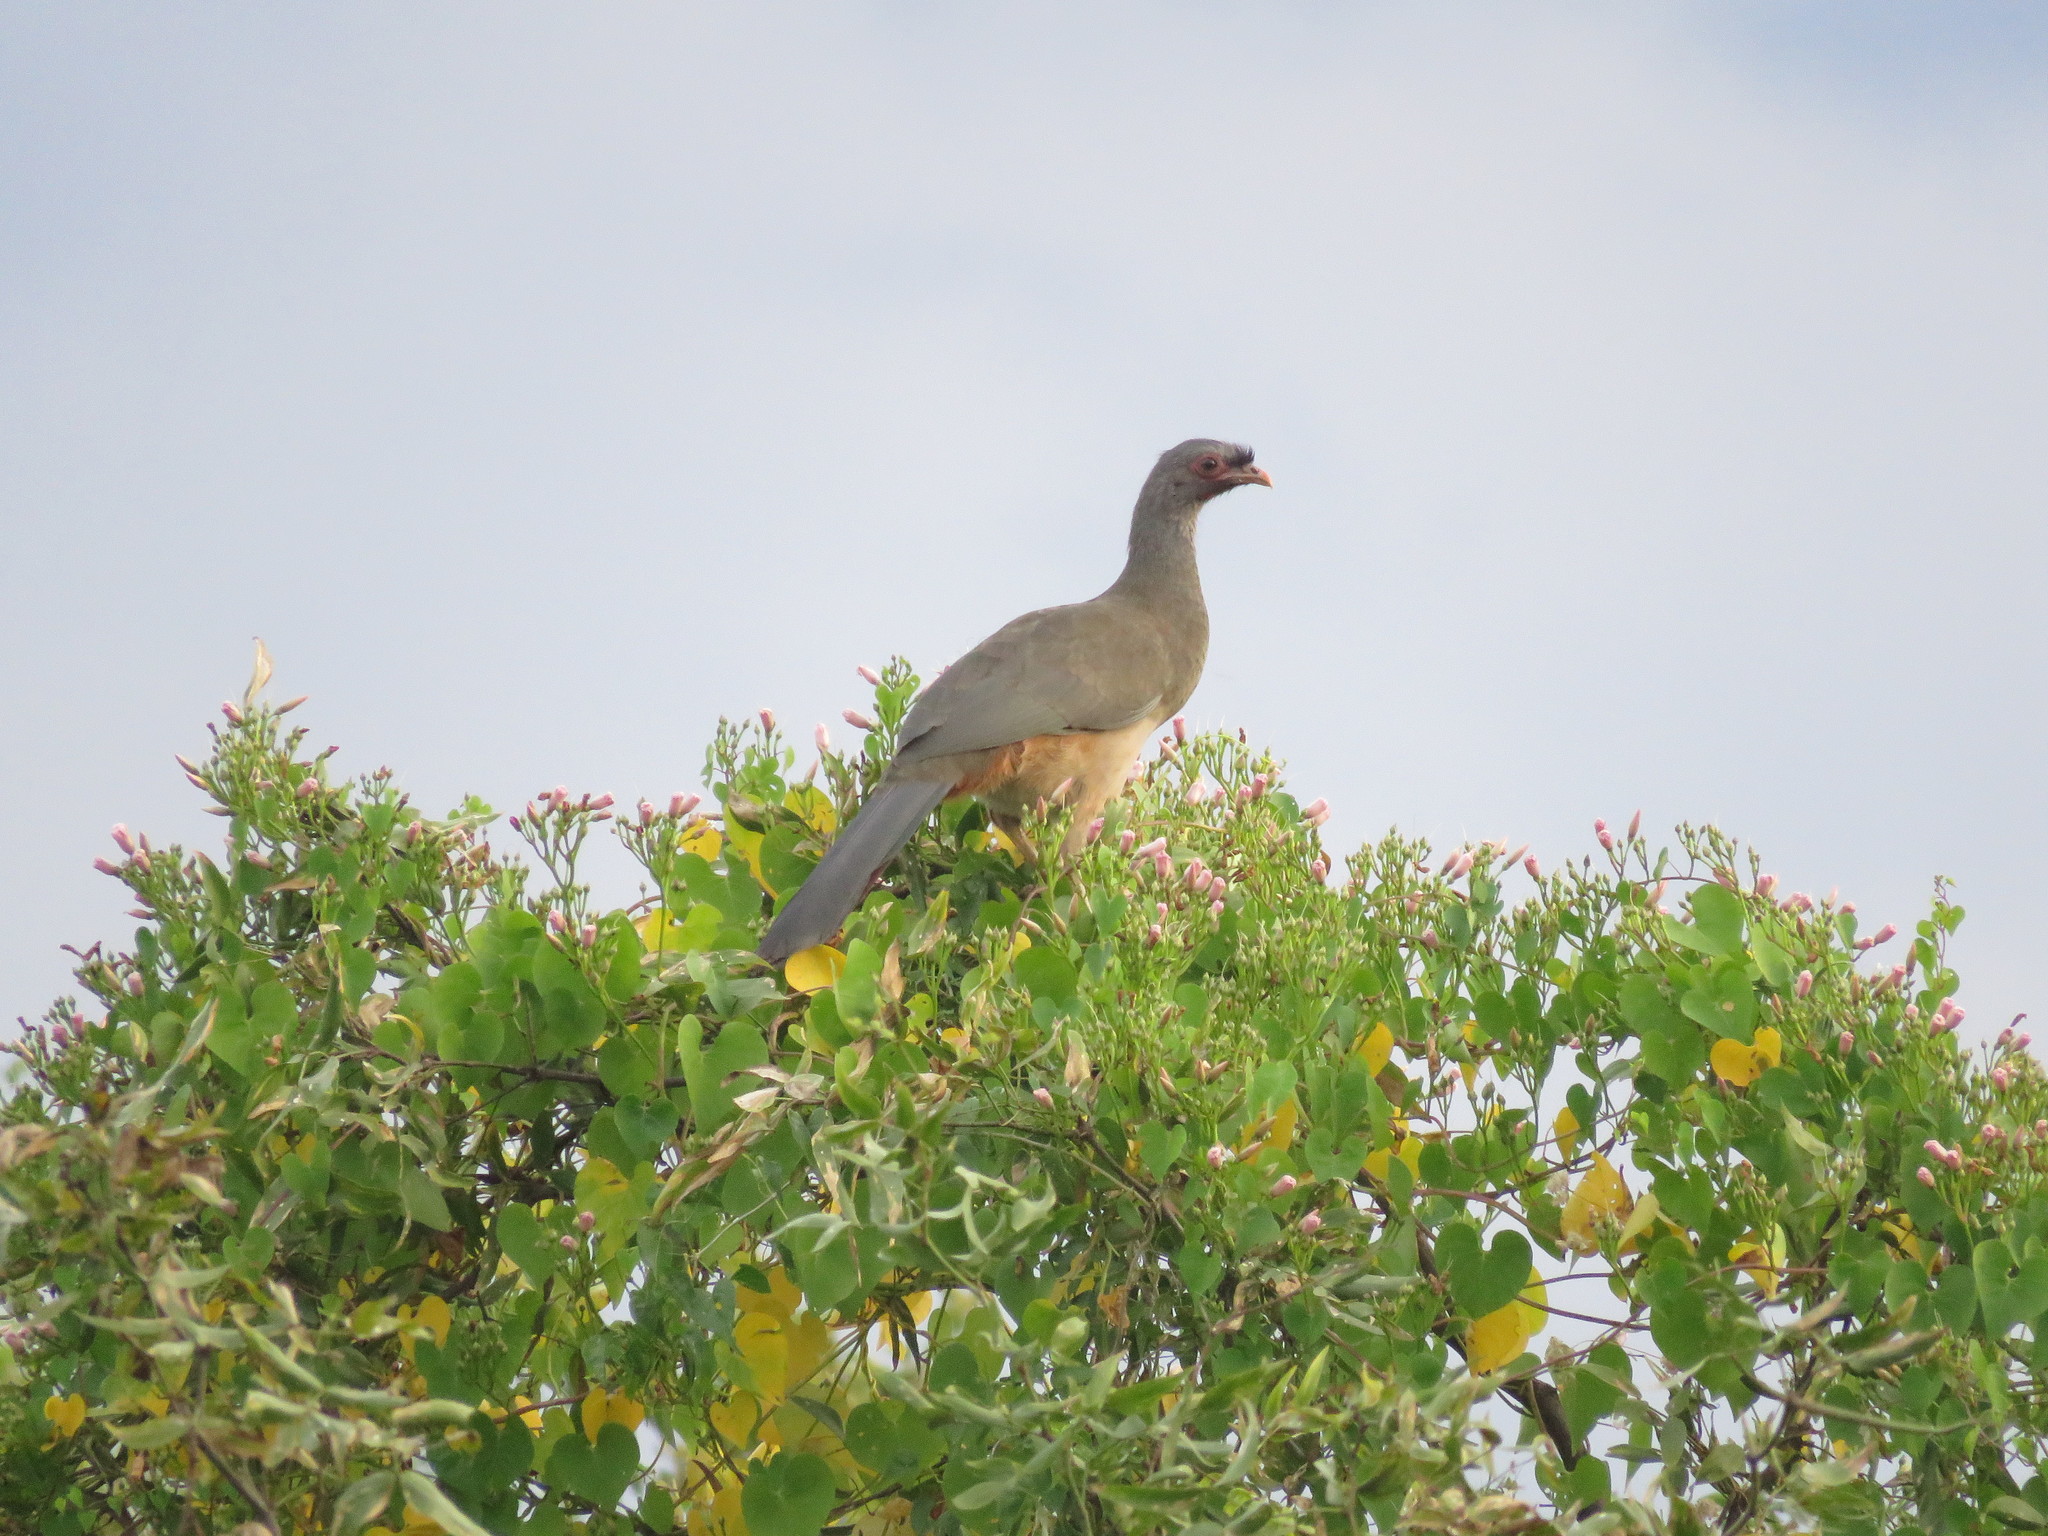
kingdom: Animalia
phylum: Chordata
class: Aves
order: Galliformes
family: Cracidae
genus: Ortalis
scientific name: Ortalis canicollis
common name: Chaco chachalaca
